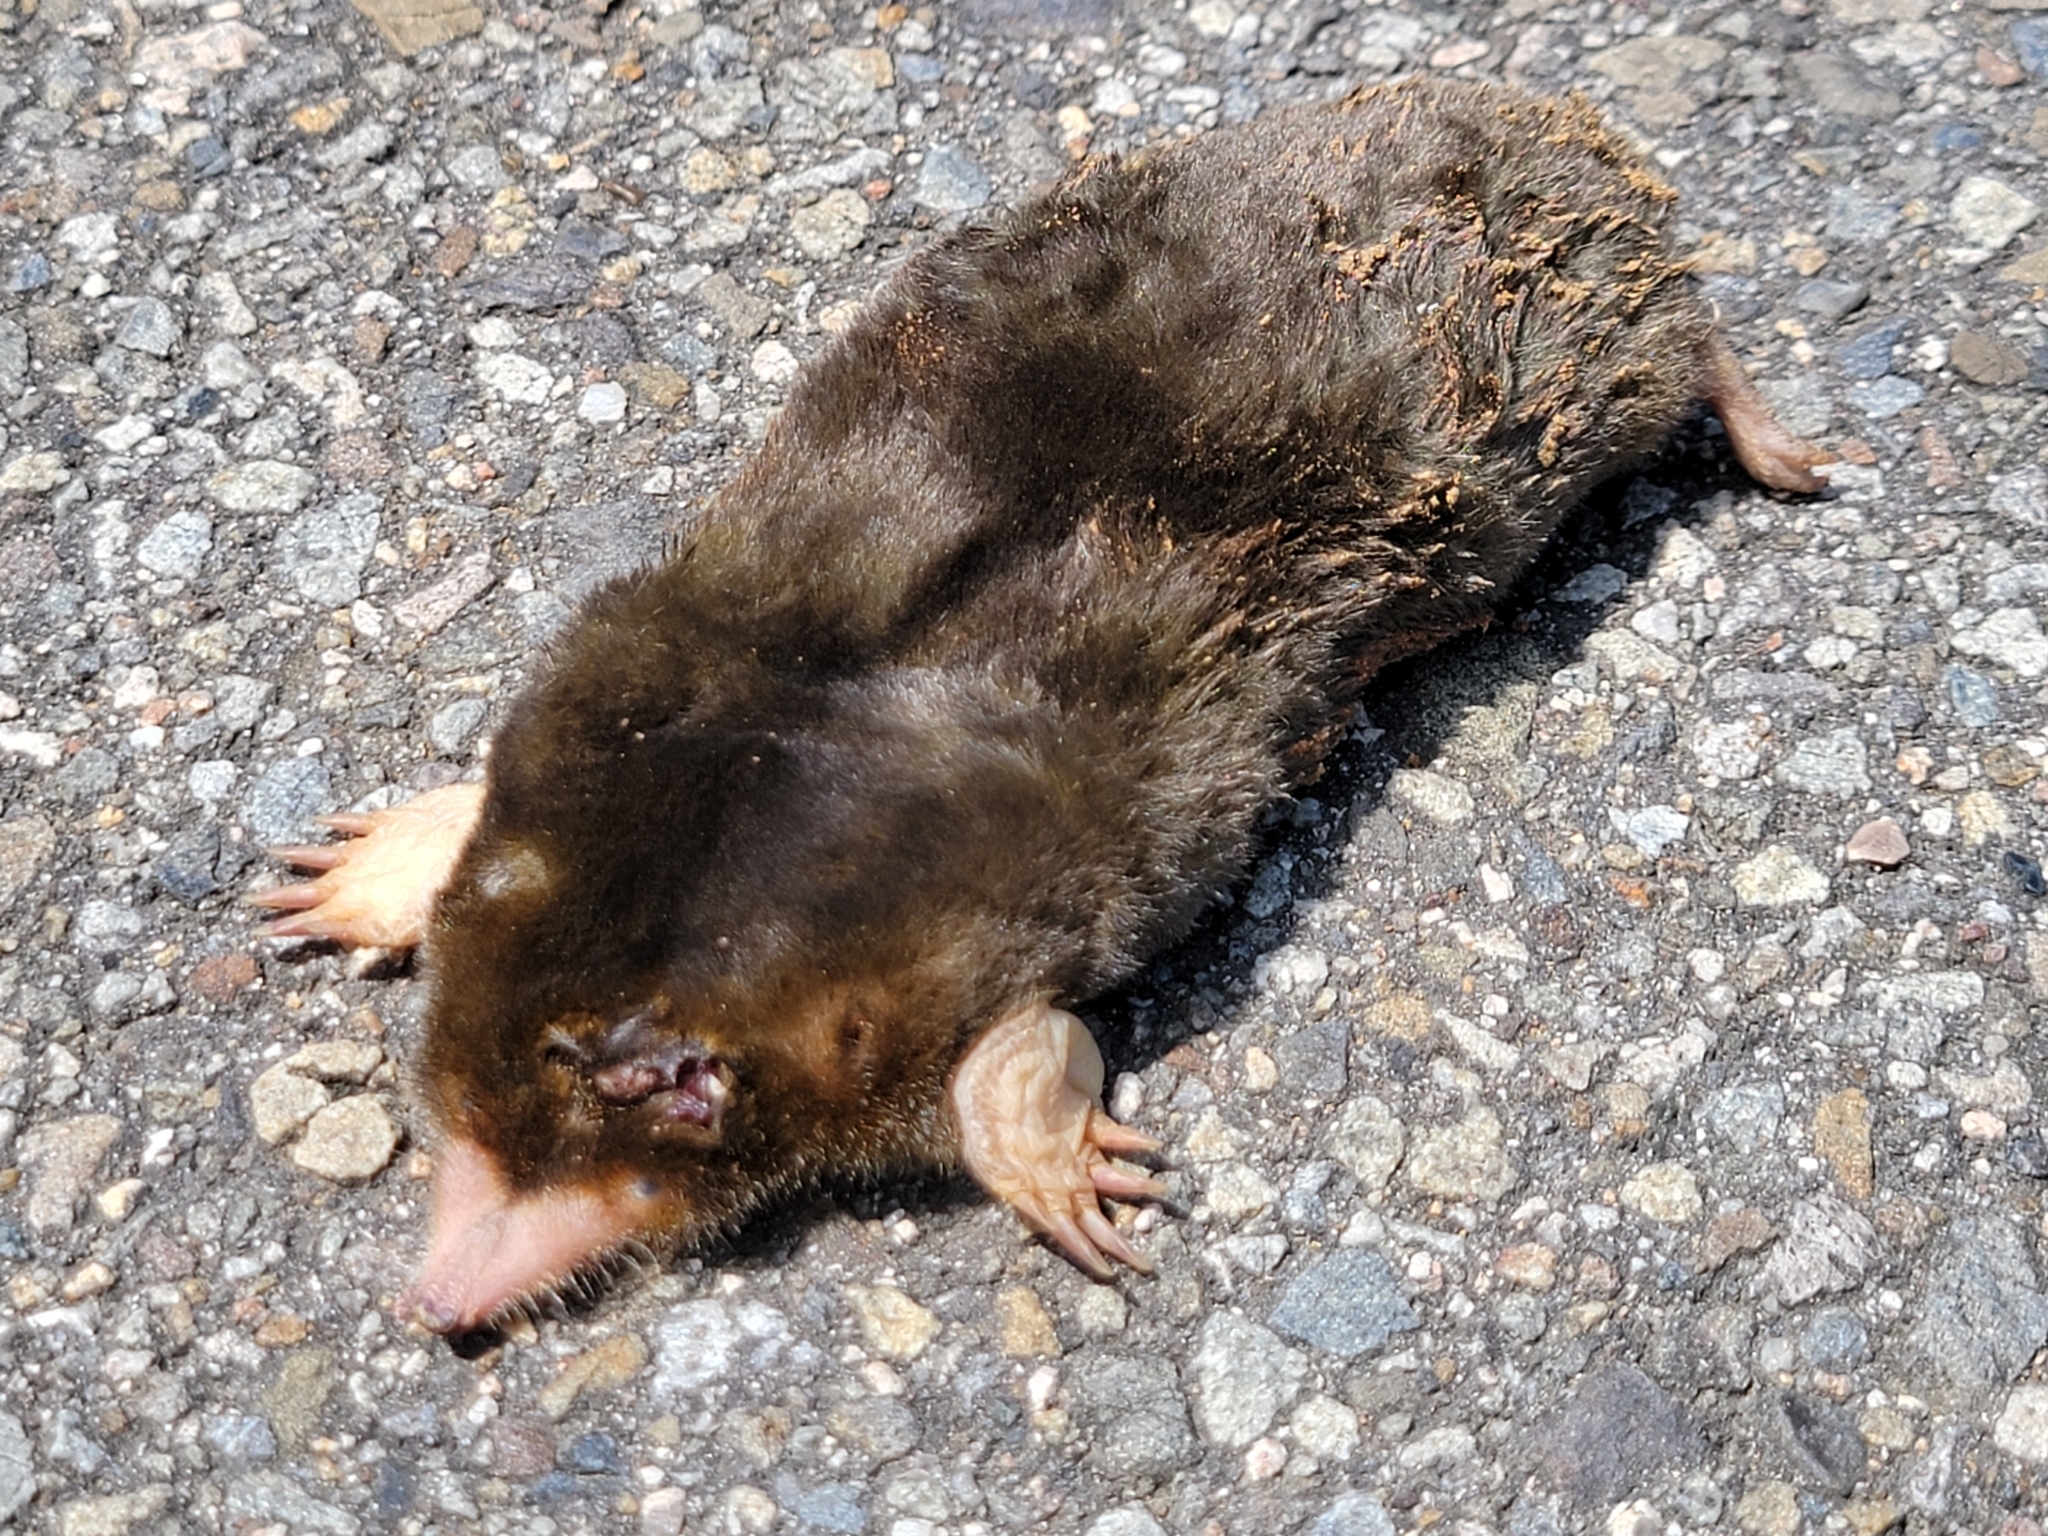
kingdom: Animalia
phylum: Chordata
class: Mammalia
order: Soricomorpha
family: Talpidae
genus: Mogera
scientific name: Mogera insularis
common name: Insular mole
